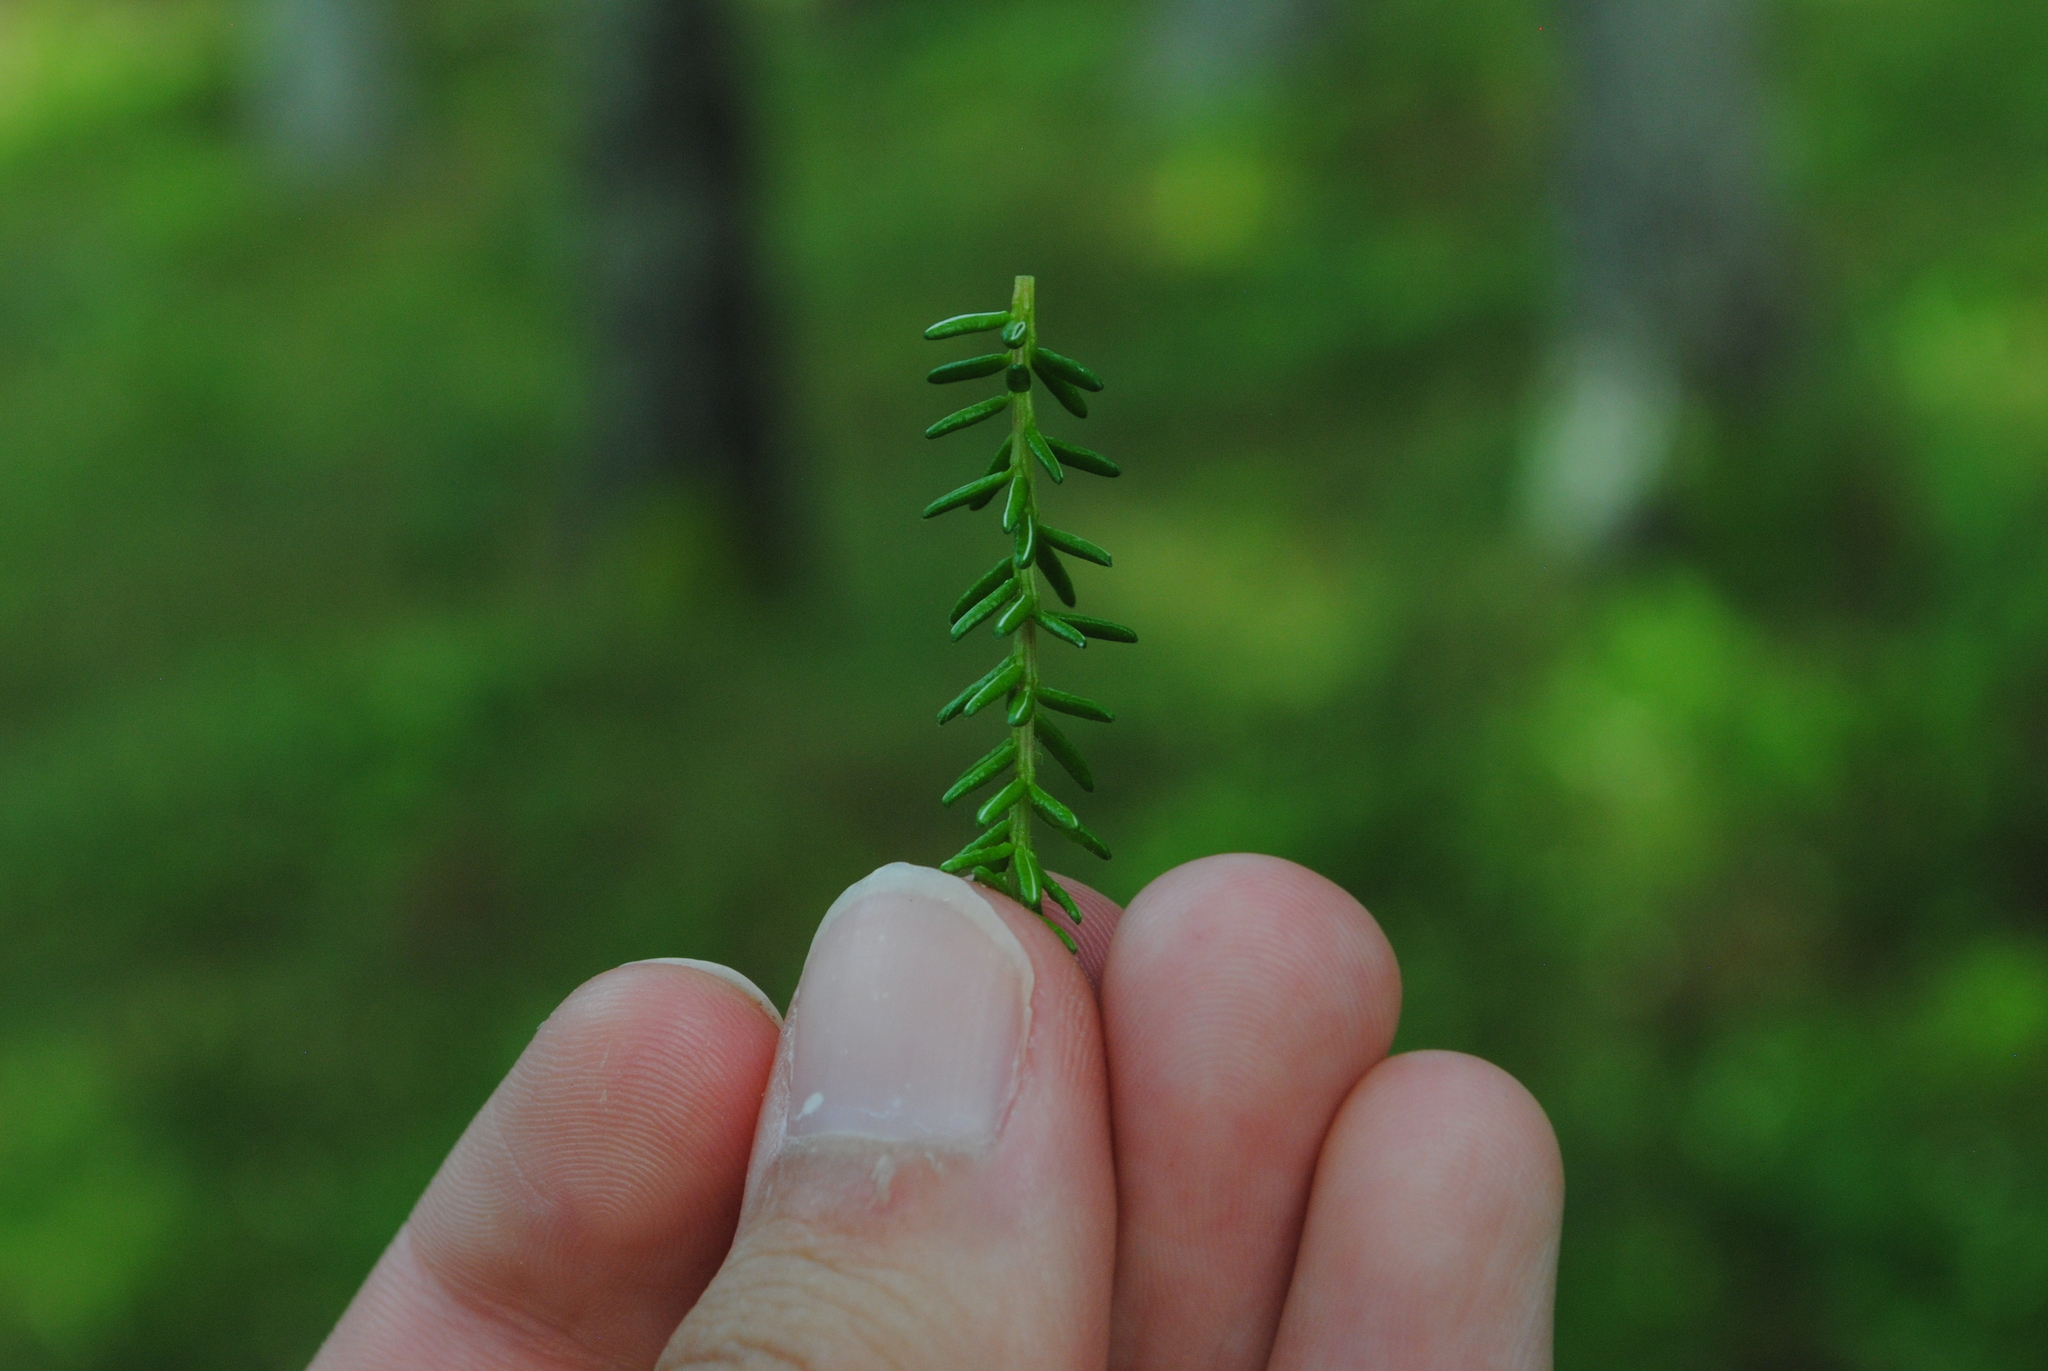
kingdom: Plantae
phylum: Tracheophyta
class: Magnoliopsida
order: Ericales
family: Ericaceae
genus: Empetrum
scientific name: Empetrum nigrum
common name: Black crowberry
